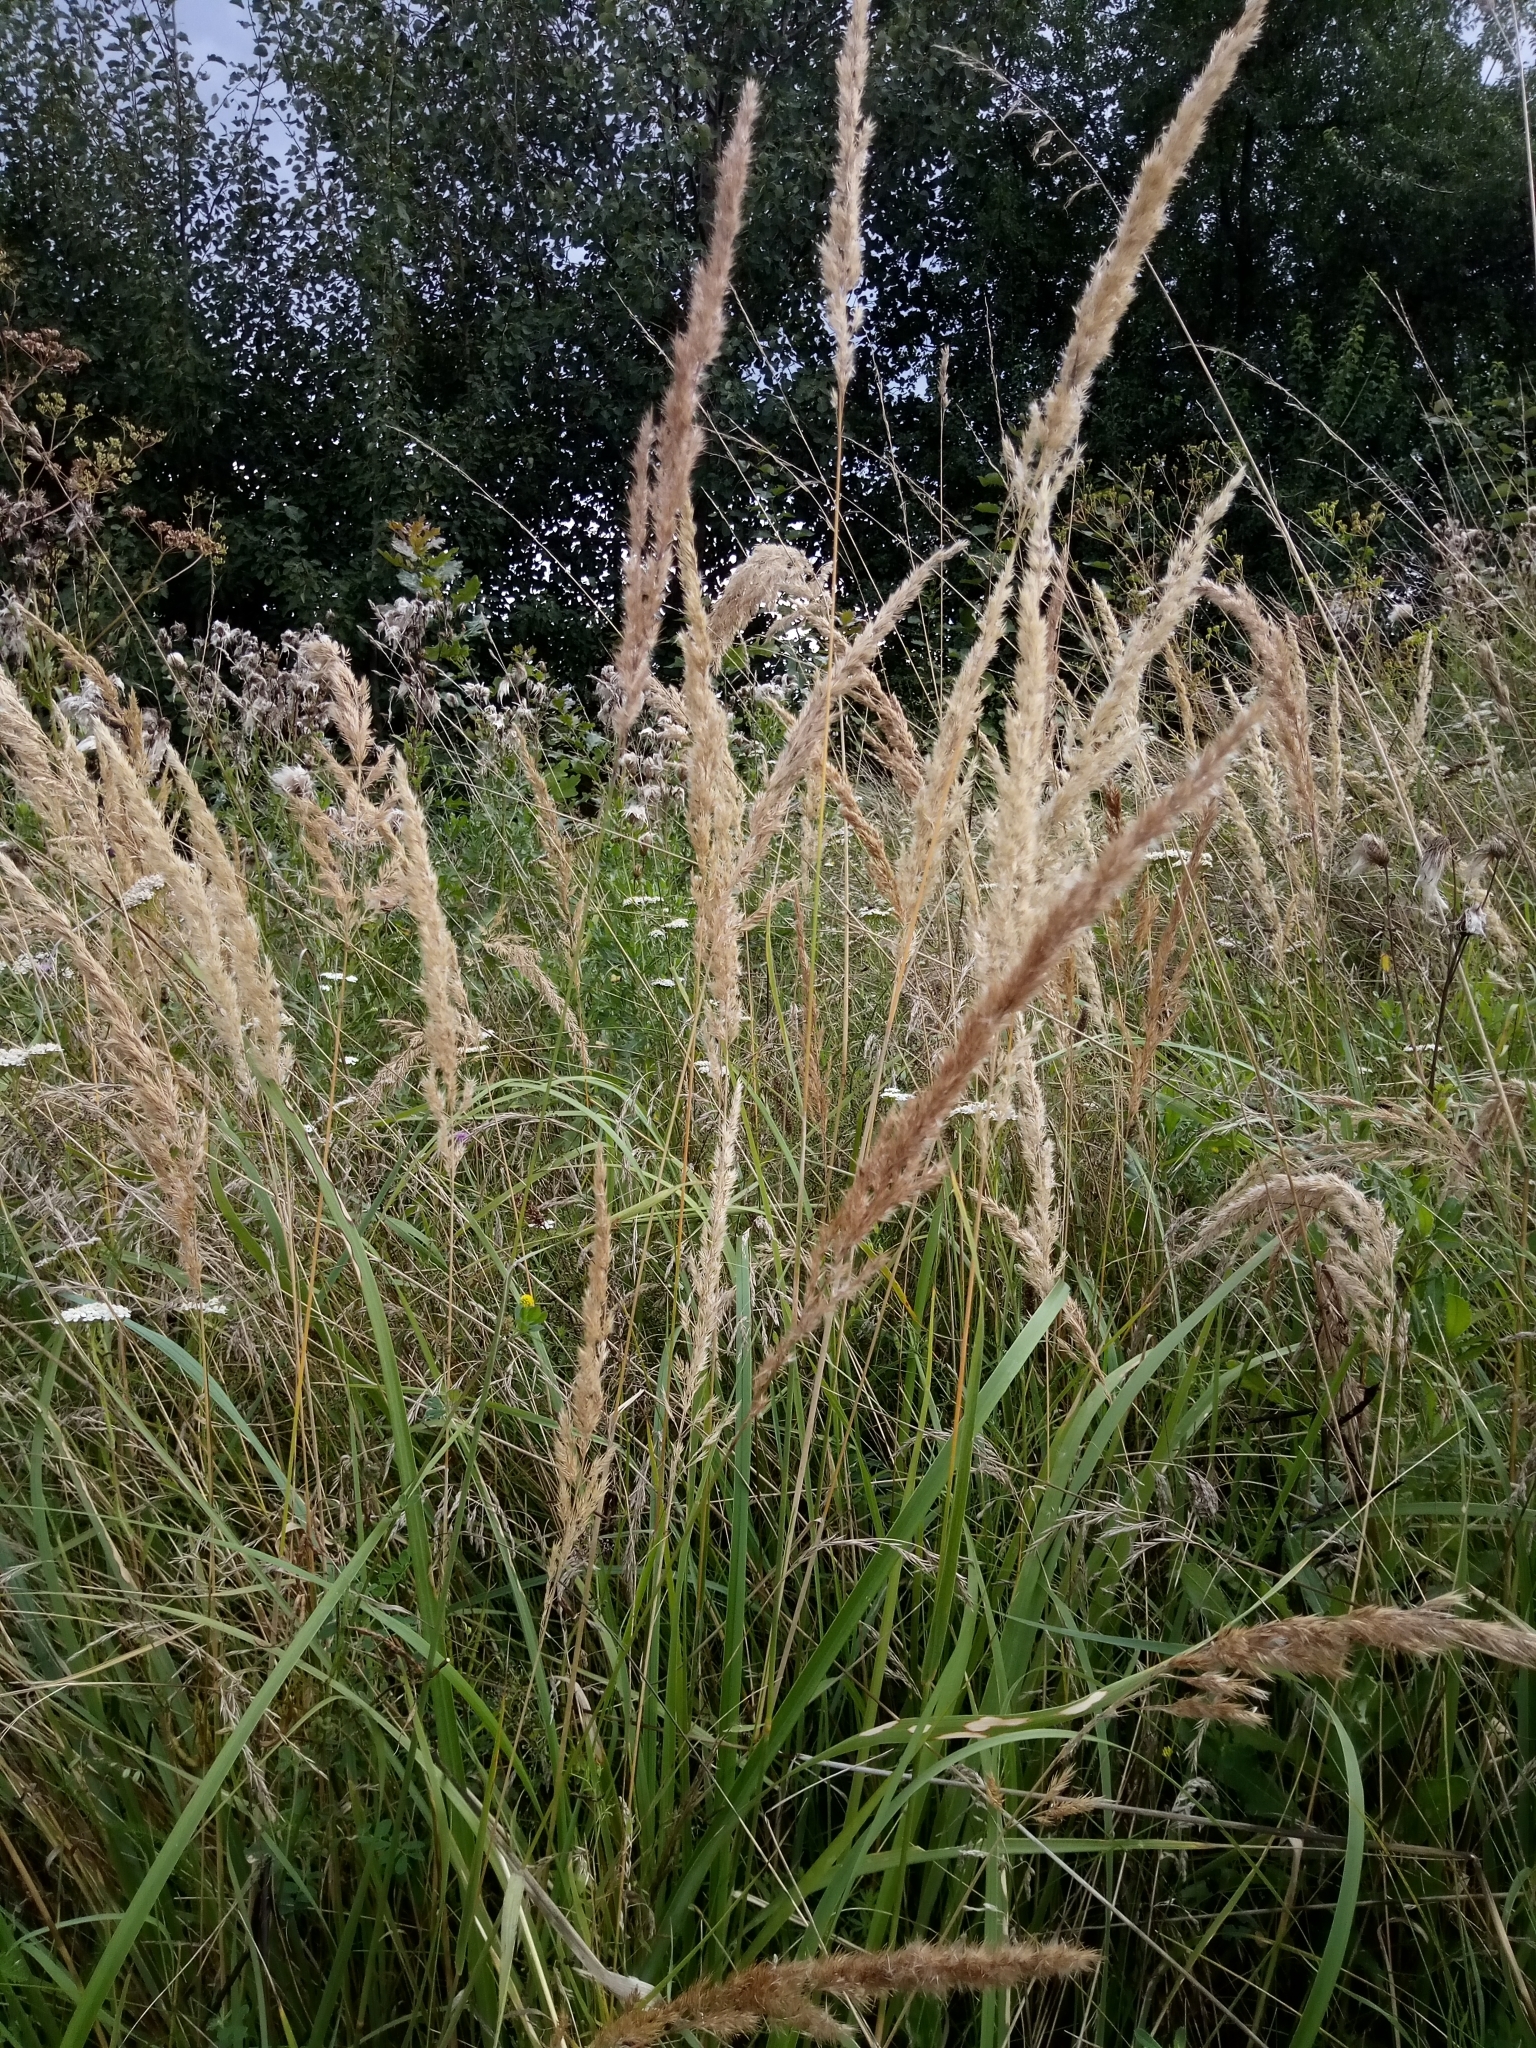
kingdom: Plantae
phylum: Tracheophyta
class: Liliopsida
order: Poales
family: Poaceae
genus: Calamagrostis
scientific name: Calamagrostis epigejos
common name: Wood small-reed
